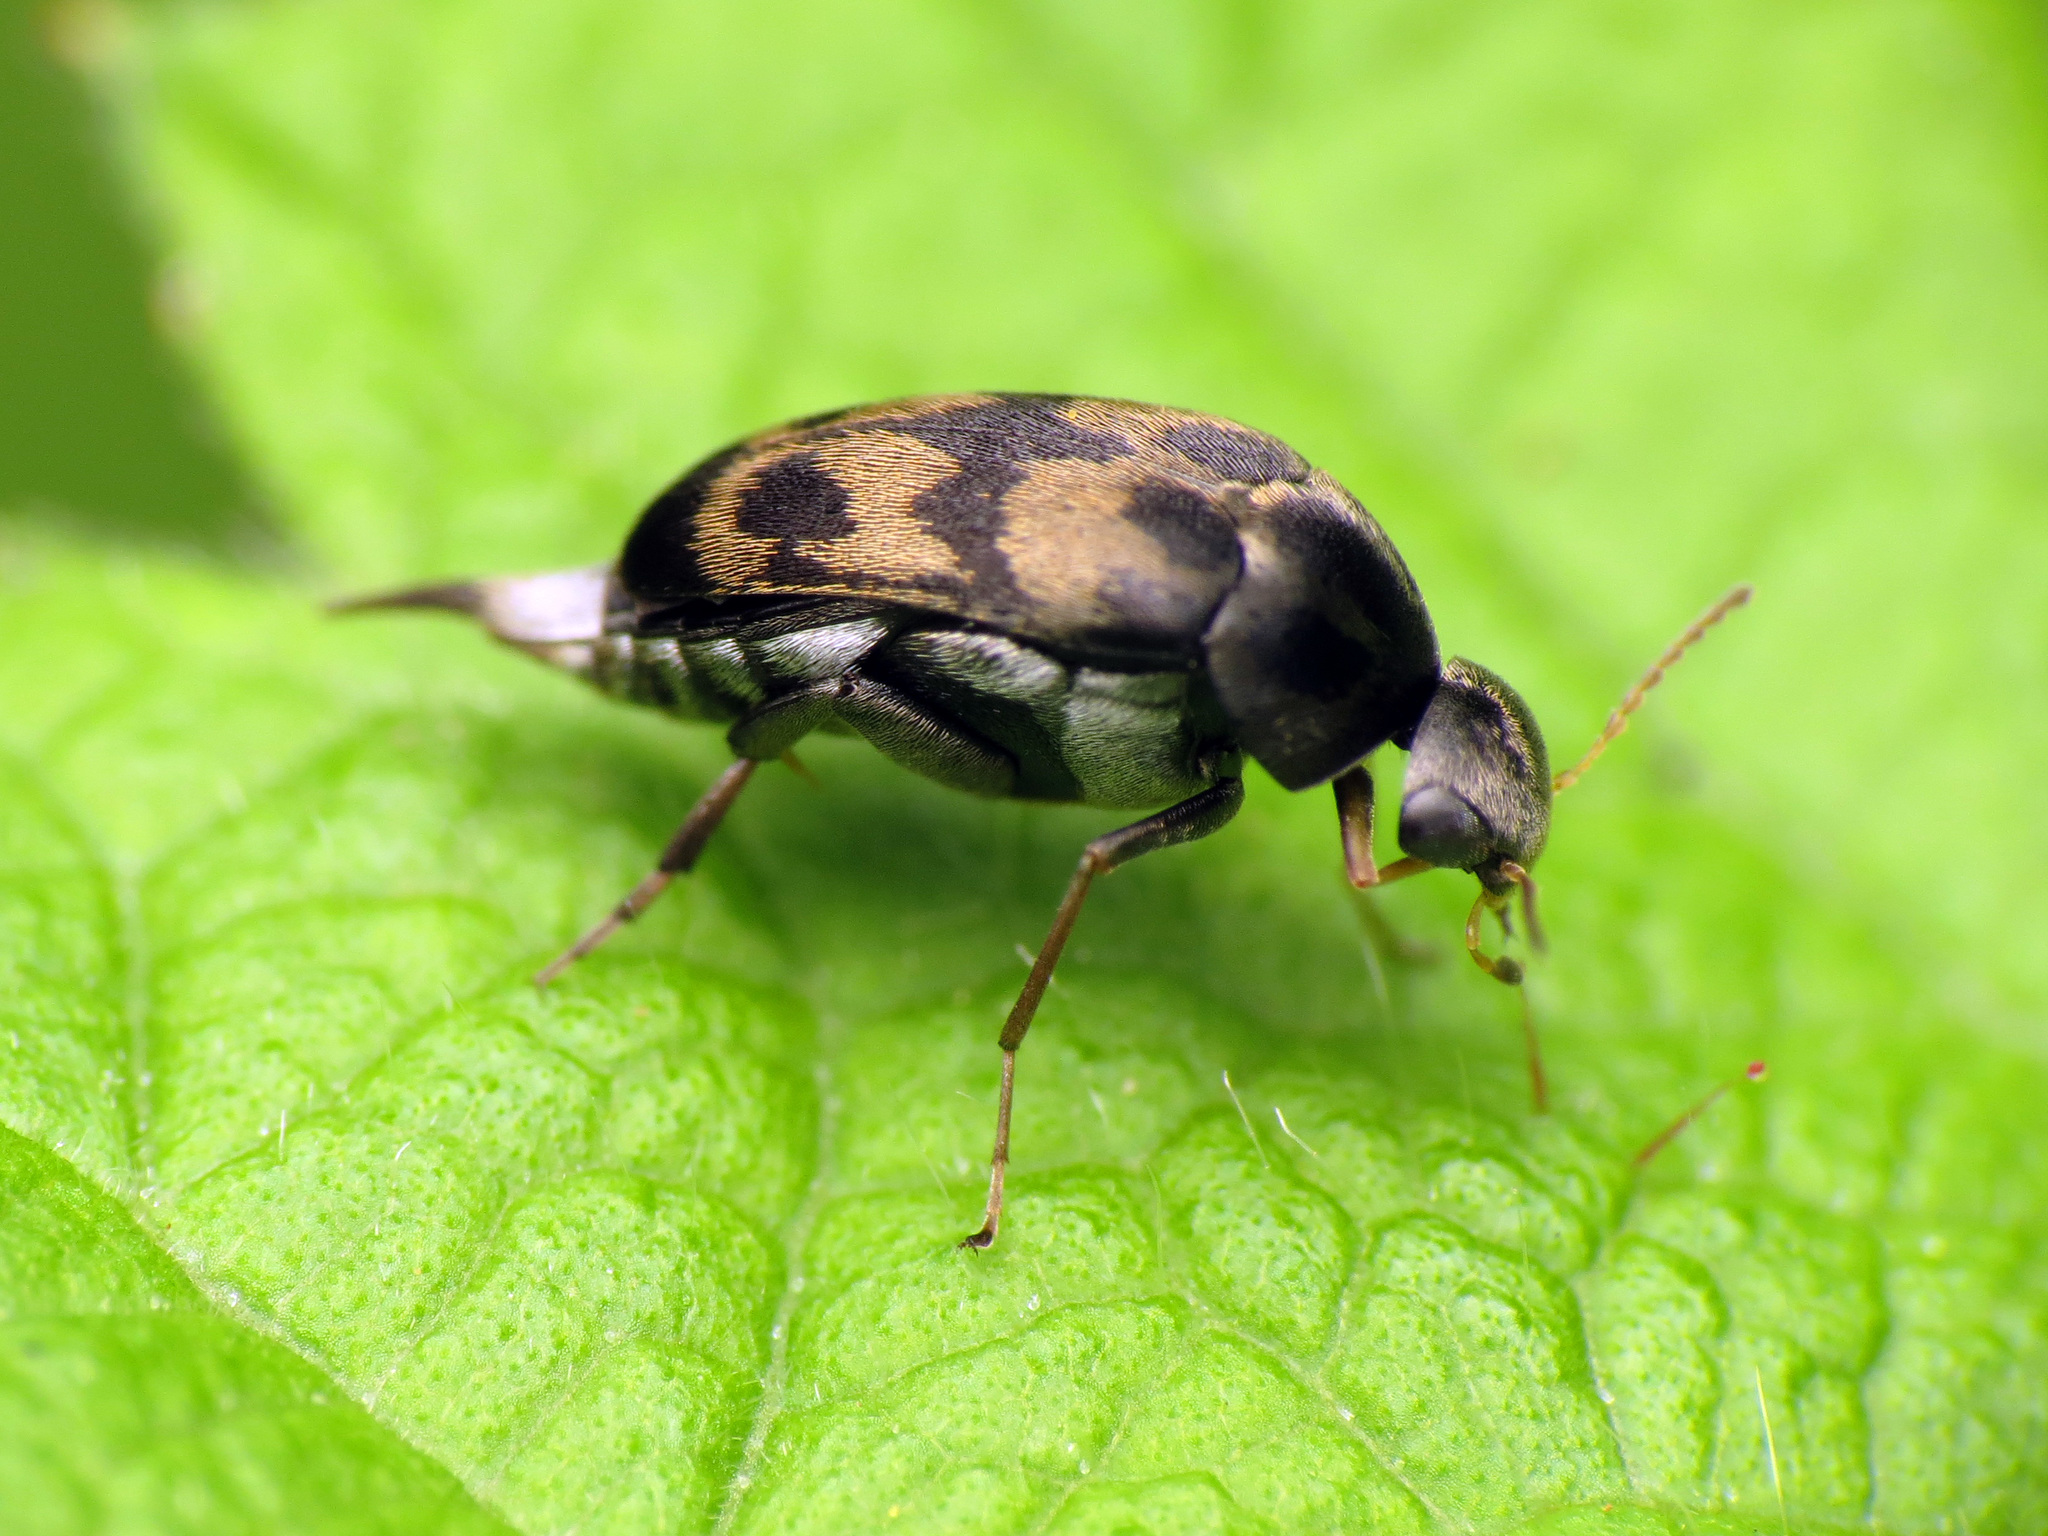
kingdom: Animalia
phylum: Arthropoda
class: Insecta
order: Coleoptera
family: Mordellidae
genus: Paramordellaria
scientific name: Paramordellaria triloba
